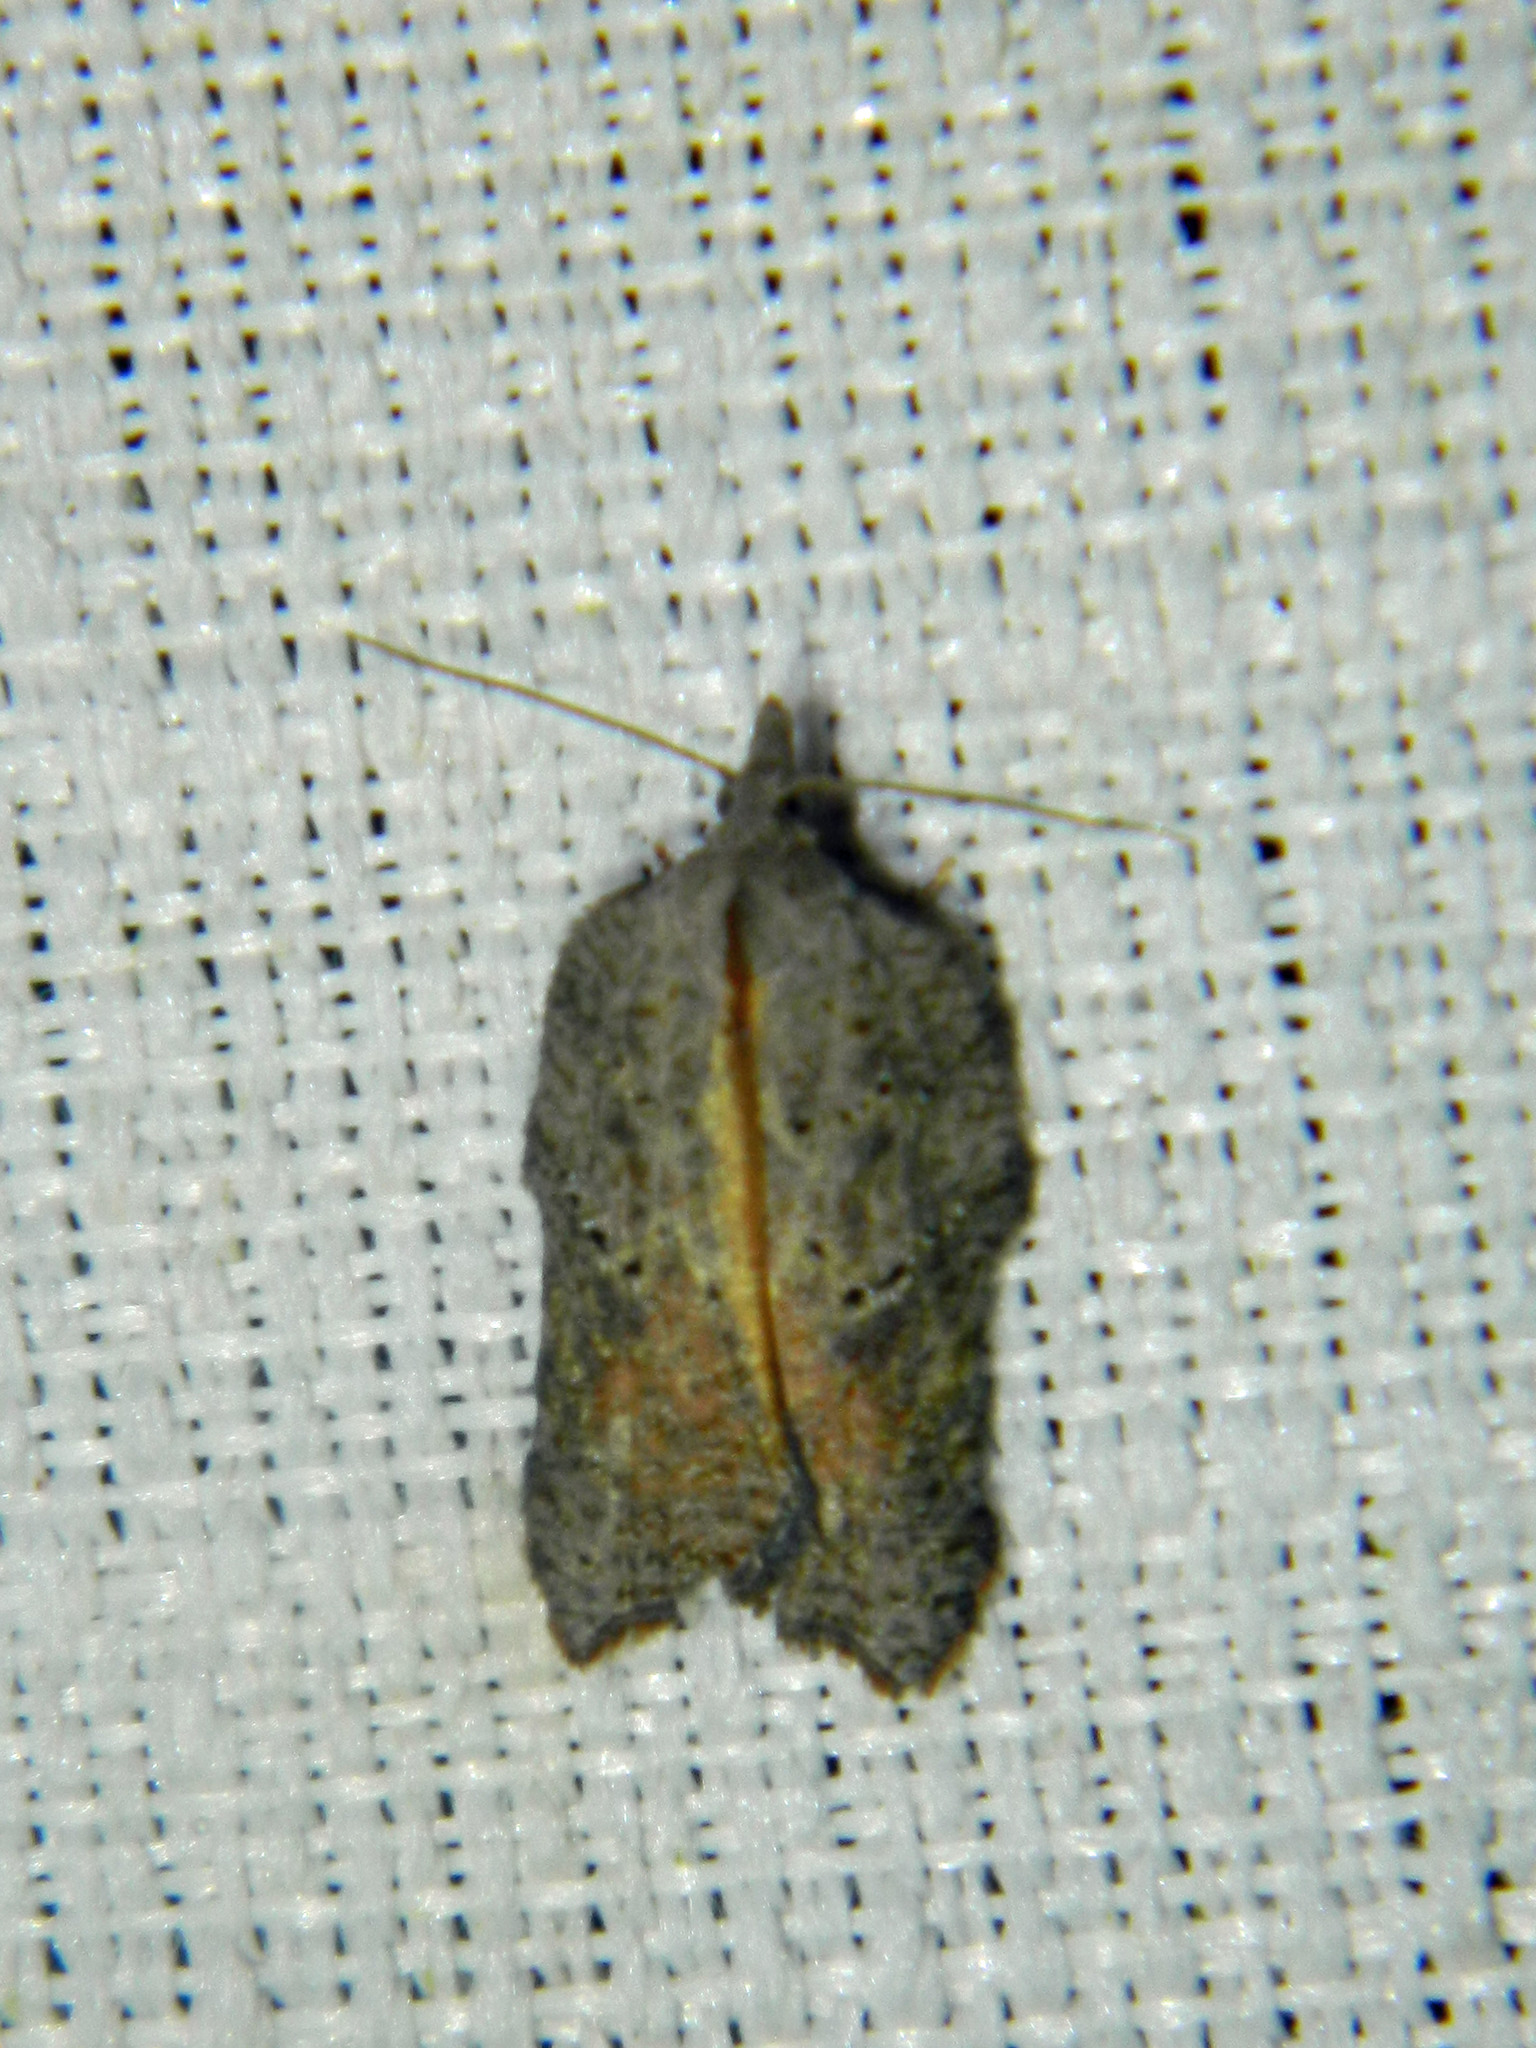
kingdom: Animalia
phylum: Arthropoda
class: Insecta
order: Lepidoptera
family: Tortricidae
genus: Acleris
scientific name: Acleris effractana
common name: Hook-winged tortrix moth
